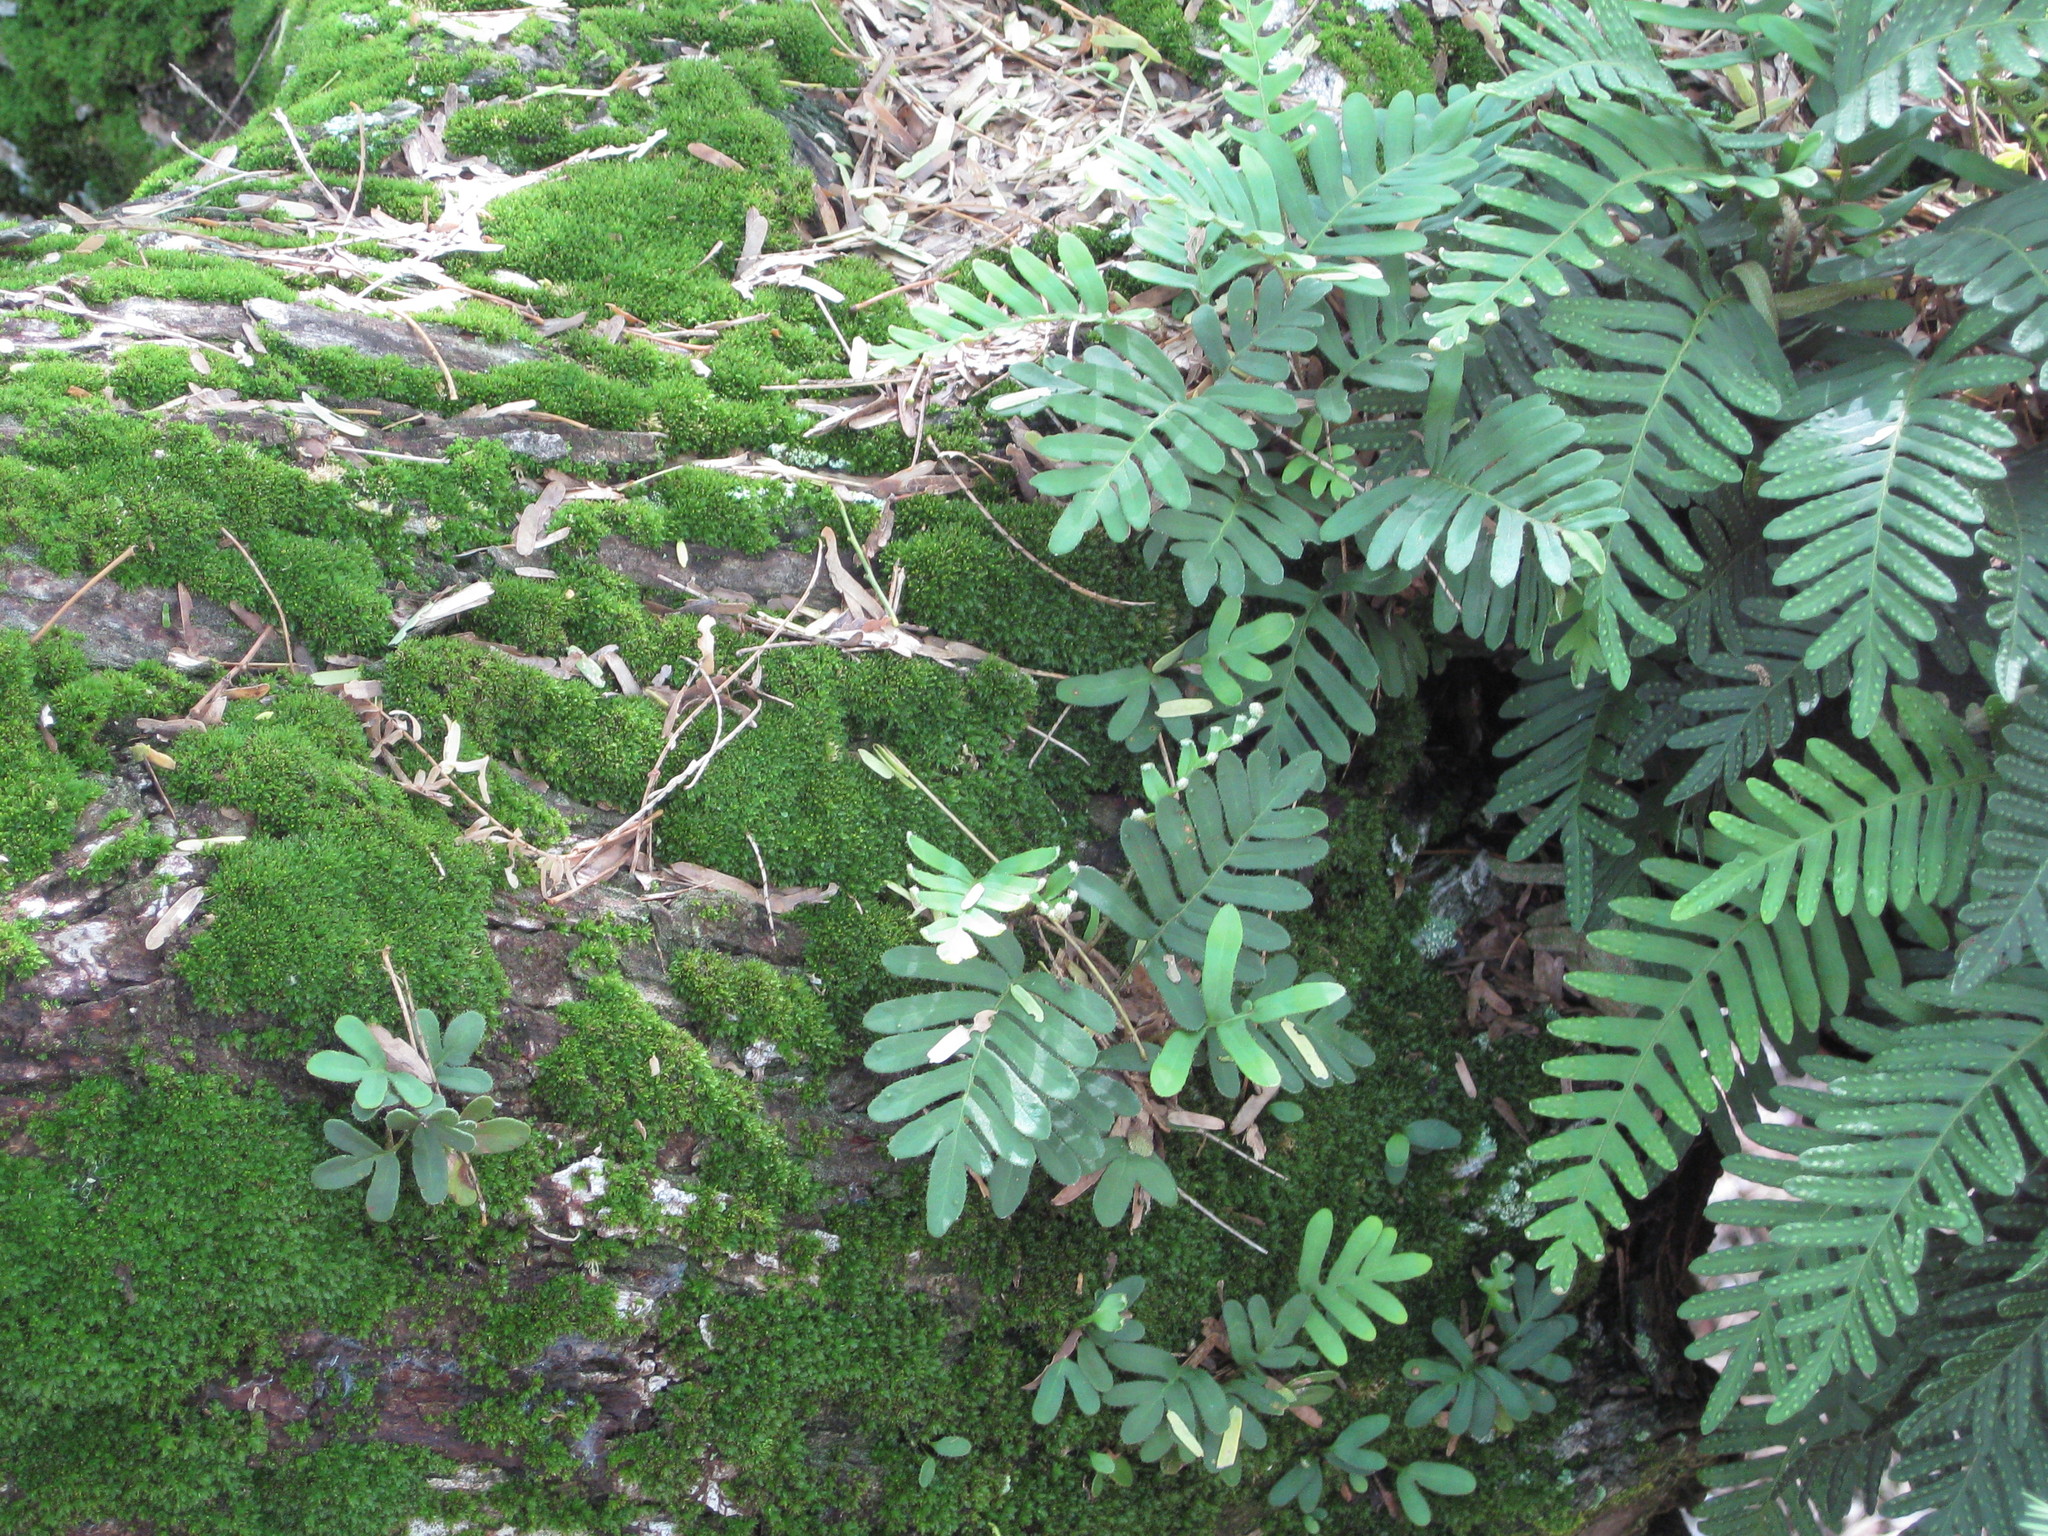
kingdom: Plantae
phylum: Tracheophyta
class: Polypodiopsida
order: Polypodiales
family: Polypodiaceae
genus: Pleopeltis
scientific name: Pleopeltis michauxiana
